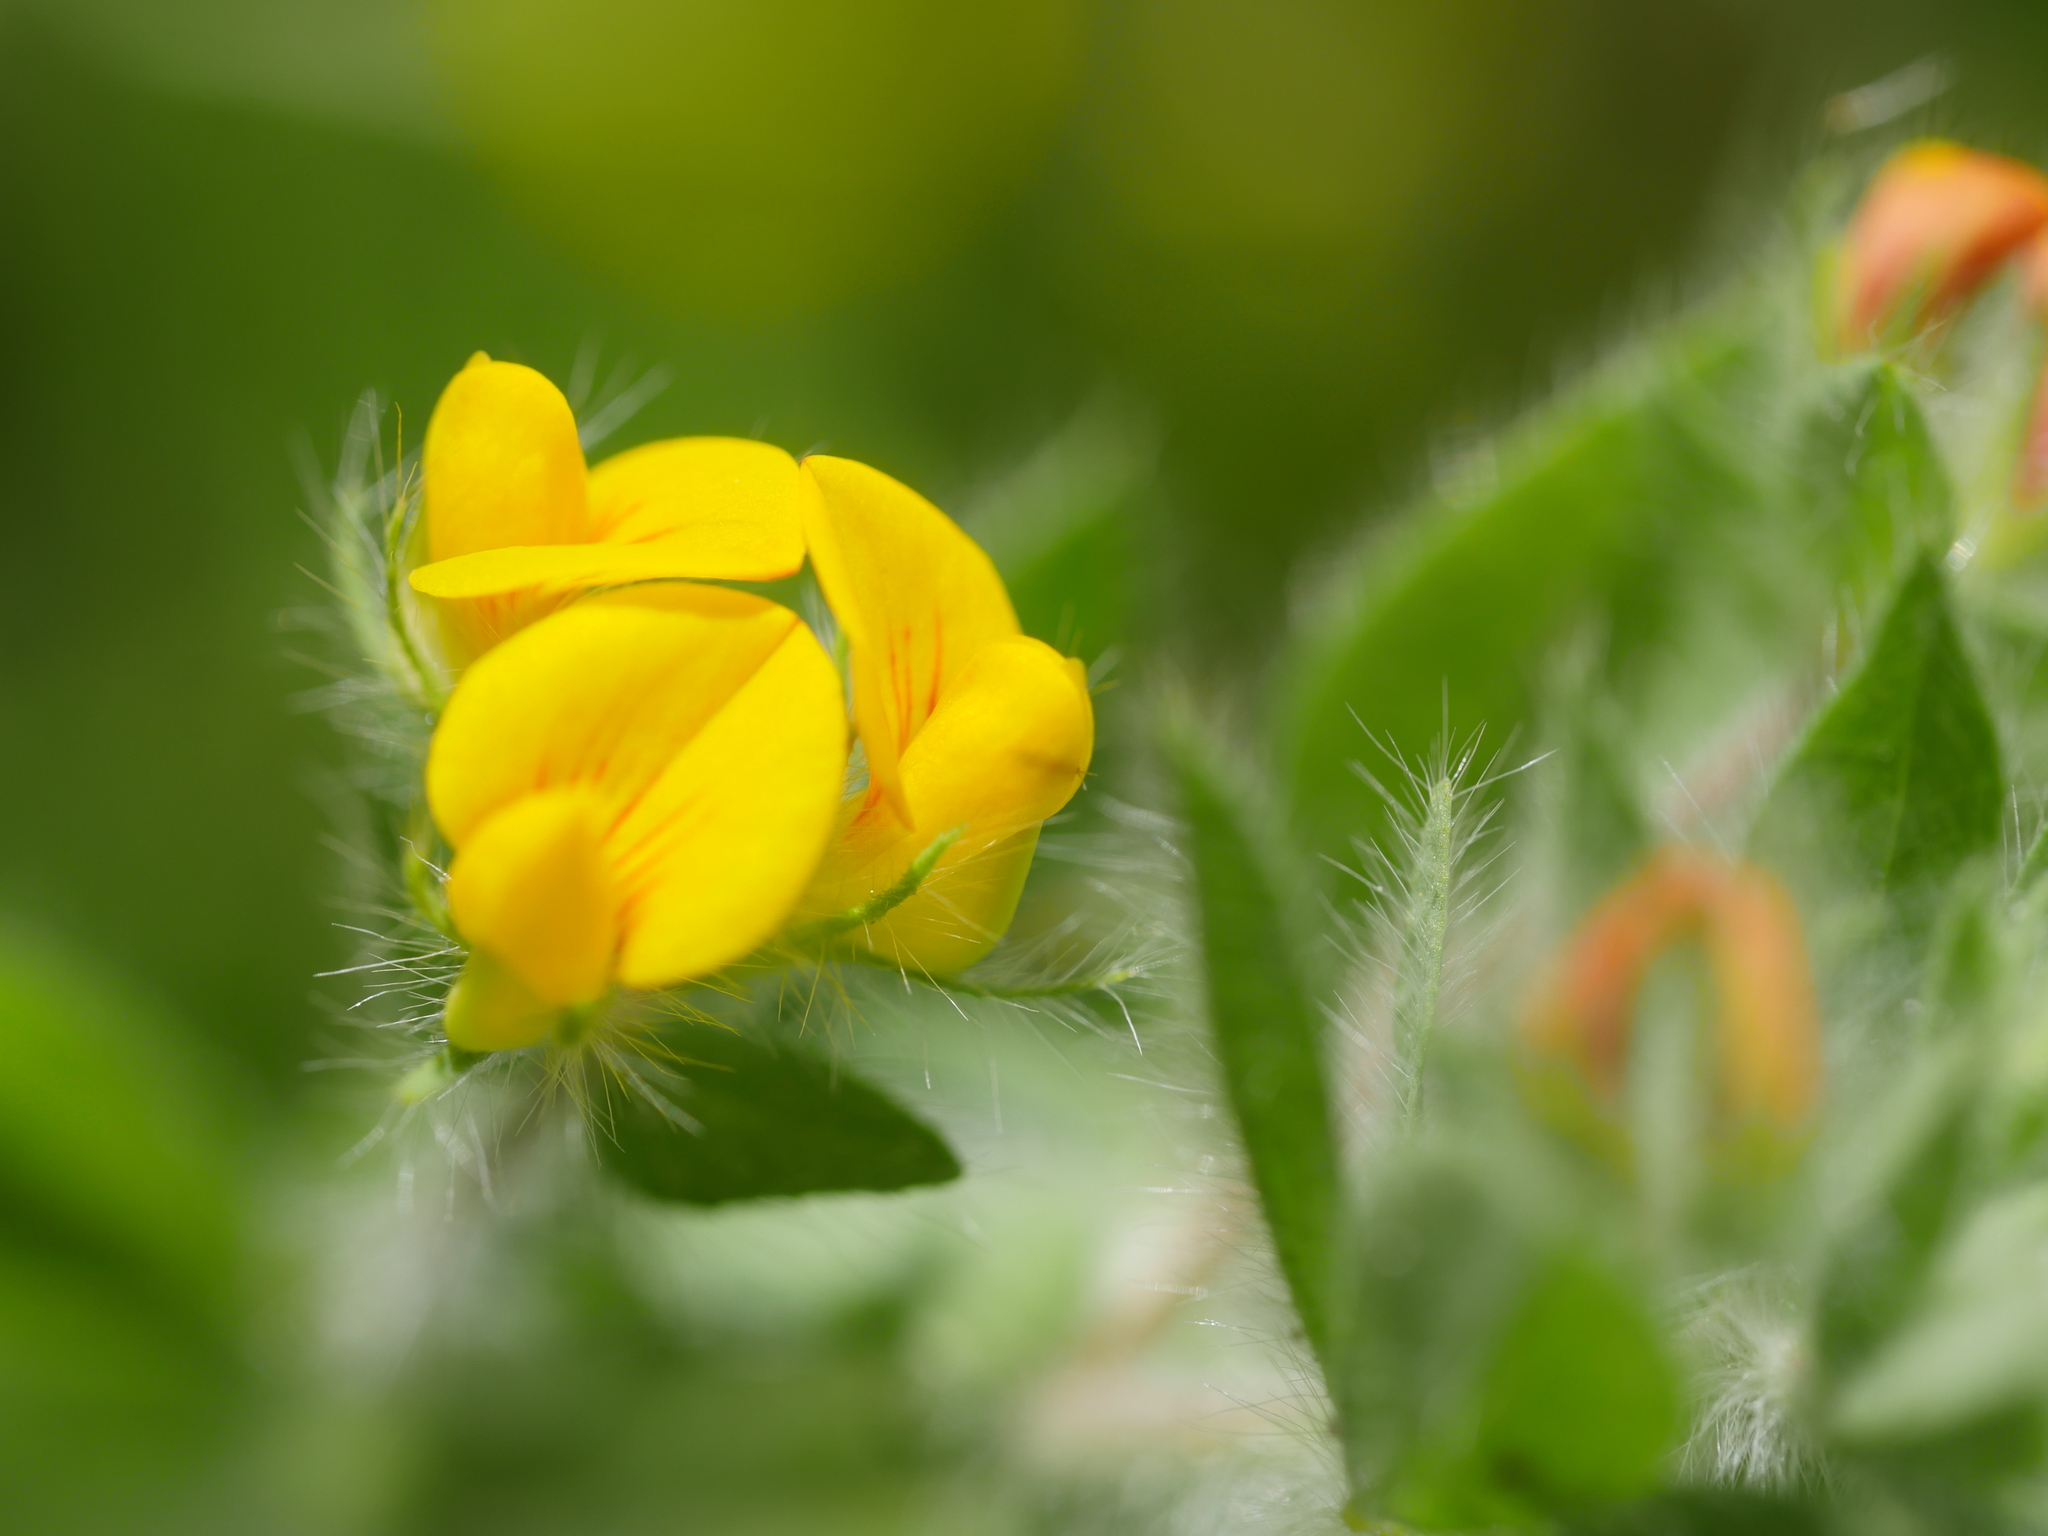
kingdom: Plantae
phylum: Tracheophyta
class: Magnoliopsida
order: Fabales
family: Fabaceae
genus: Lotus
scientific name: Lotus subbiflorus
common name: Hairy bird's-foot trefoil
